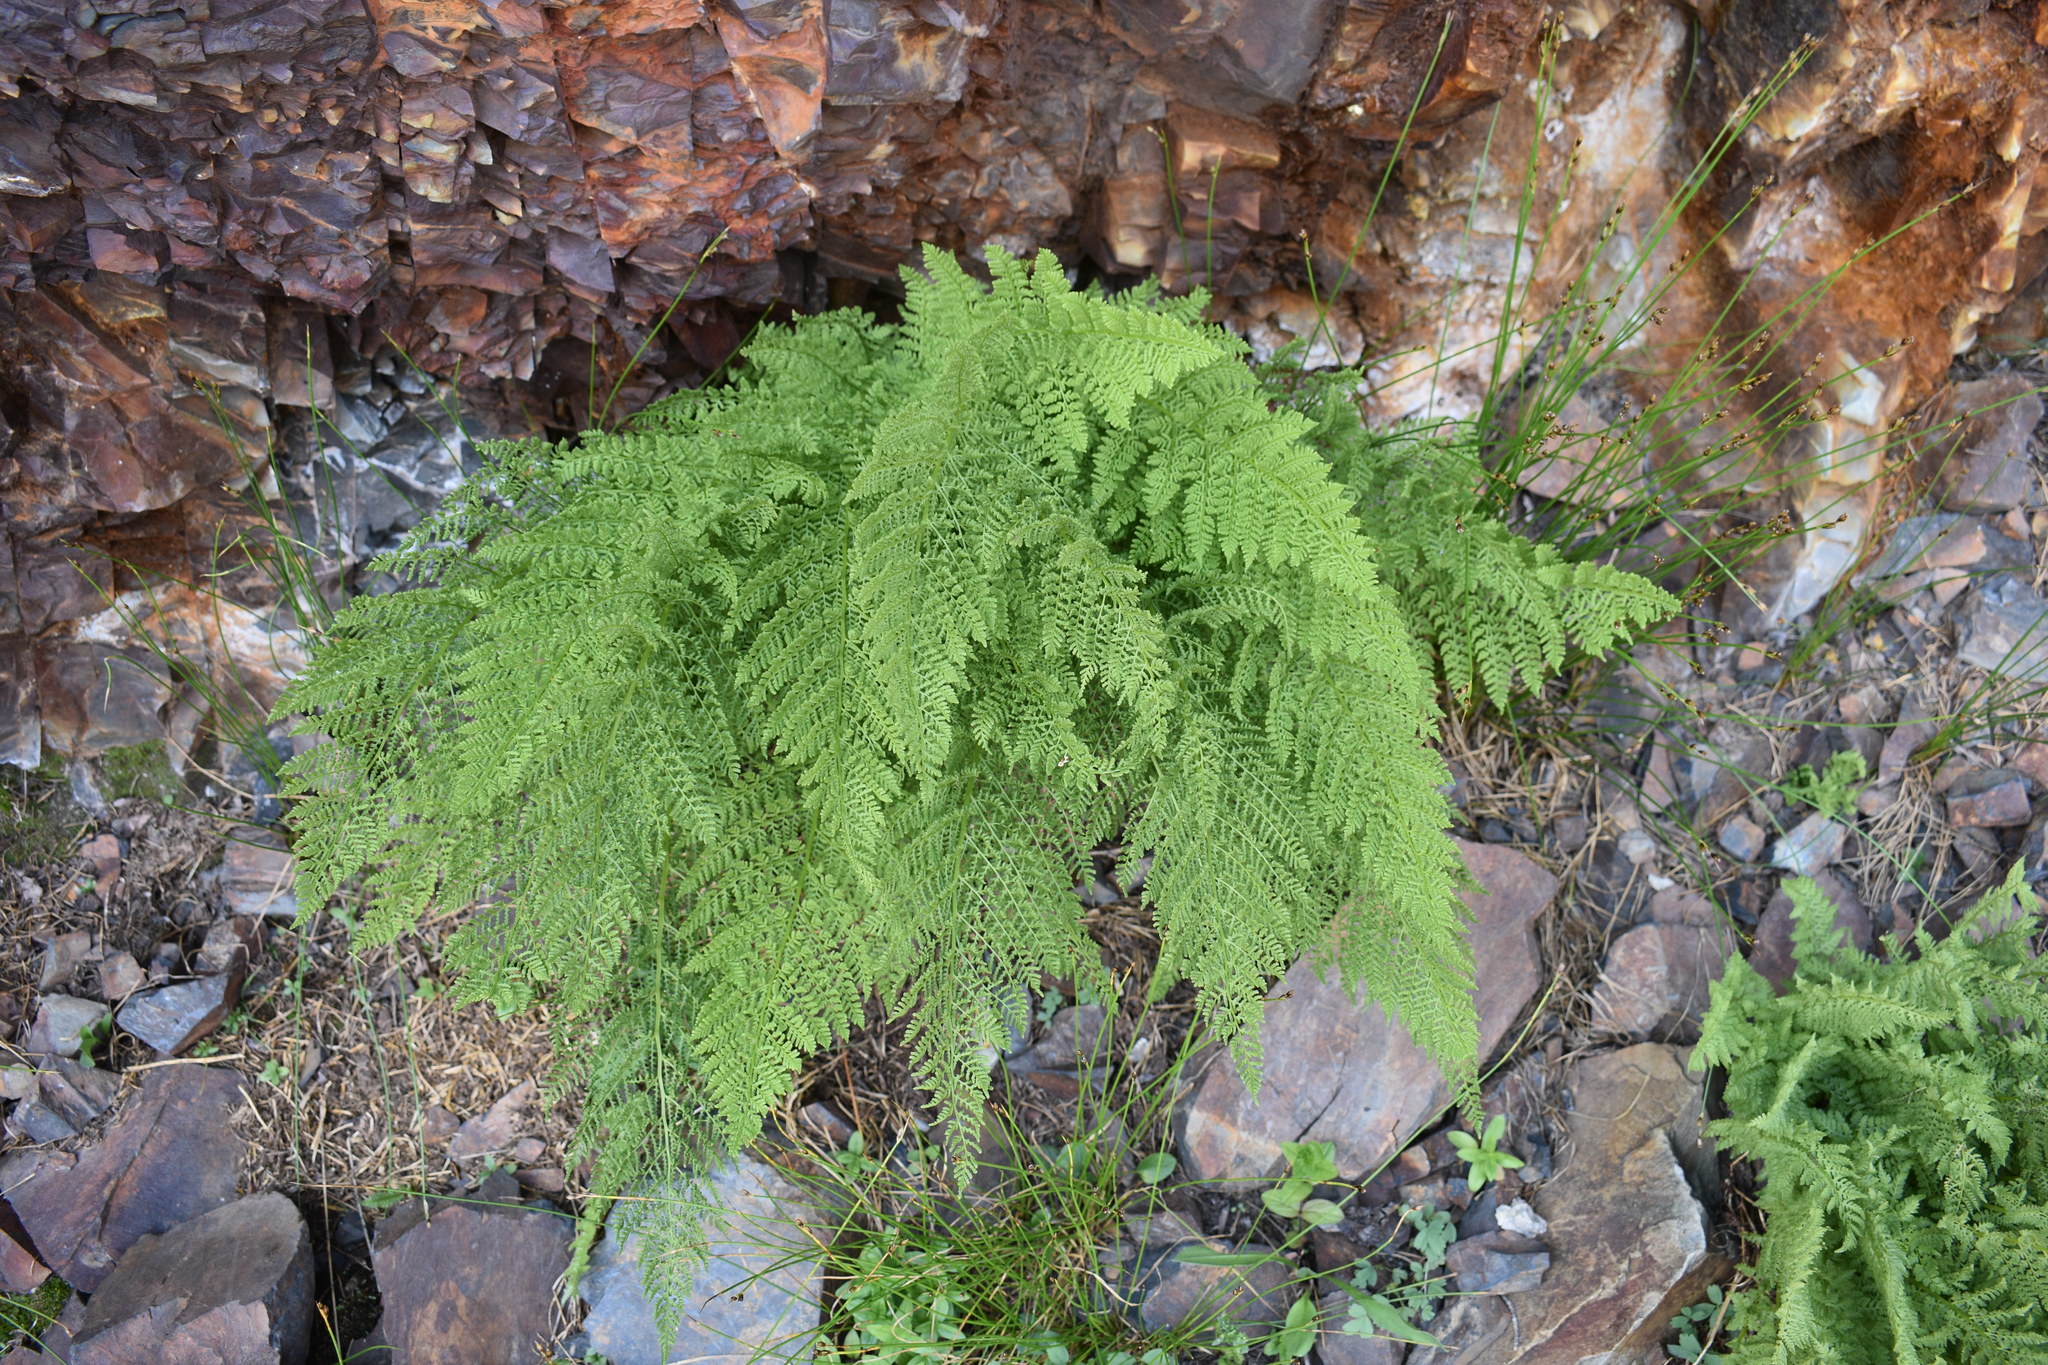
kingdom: Plantae
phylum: Tracheophyta
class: Polypodiopsida
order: Polypodiales
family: Athyriaceae
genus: Athyrium
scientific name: Athyrium americanum
